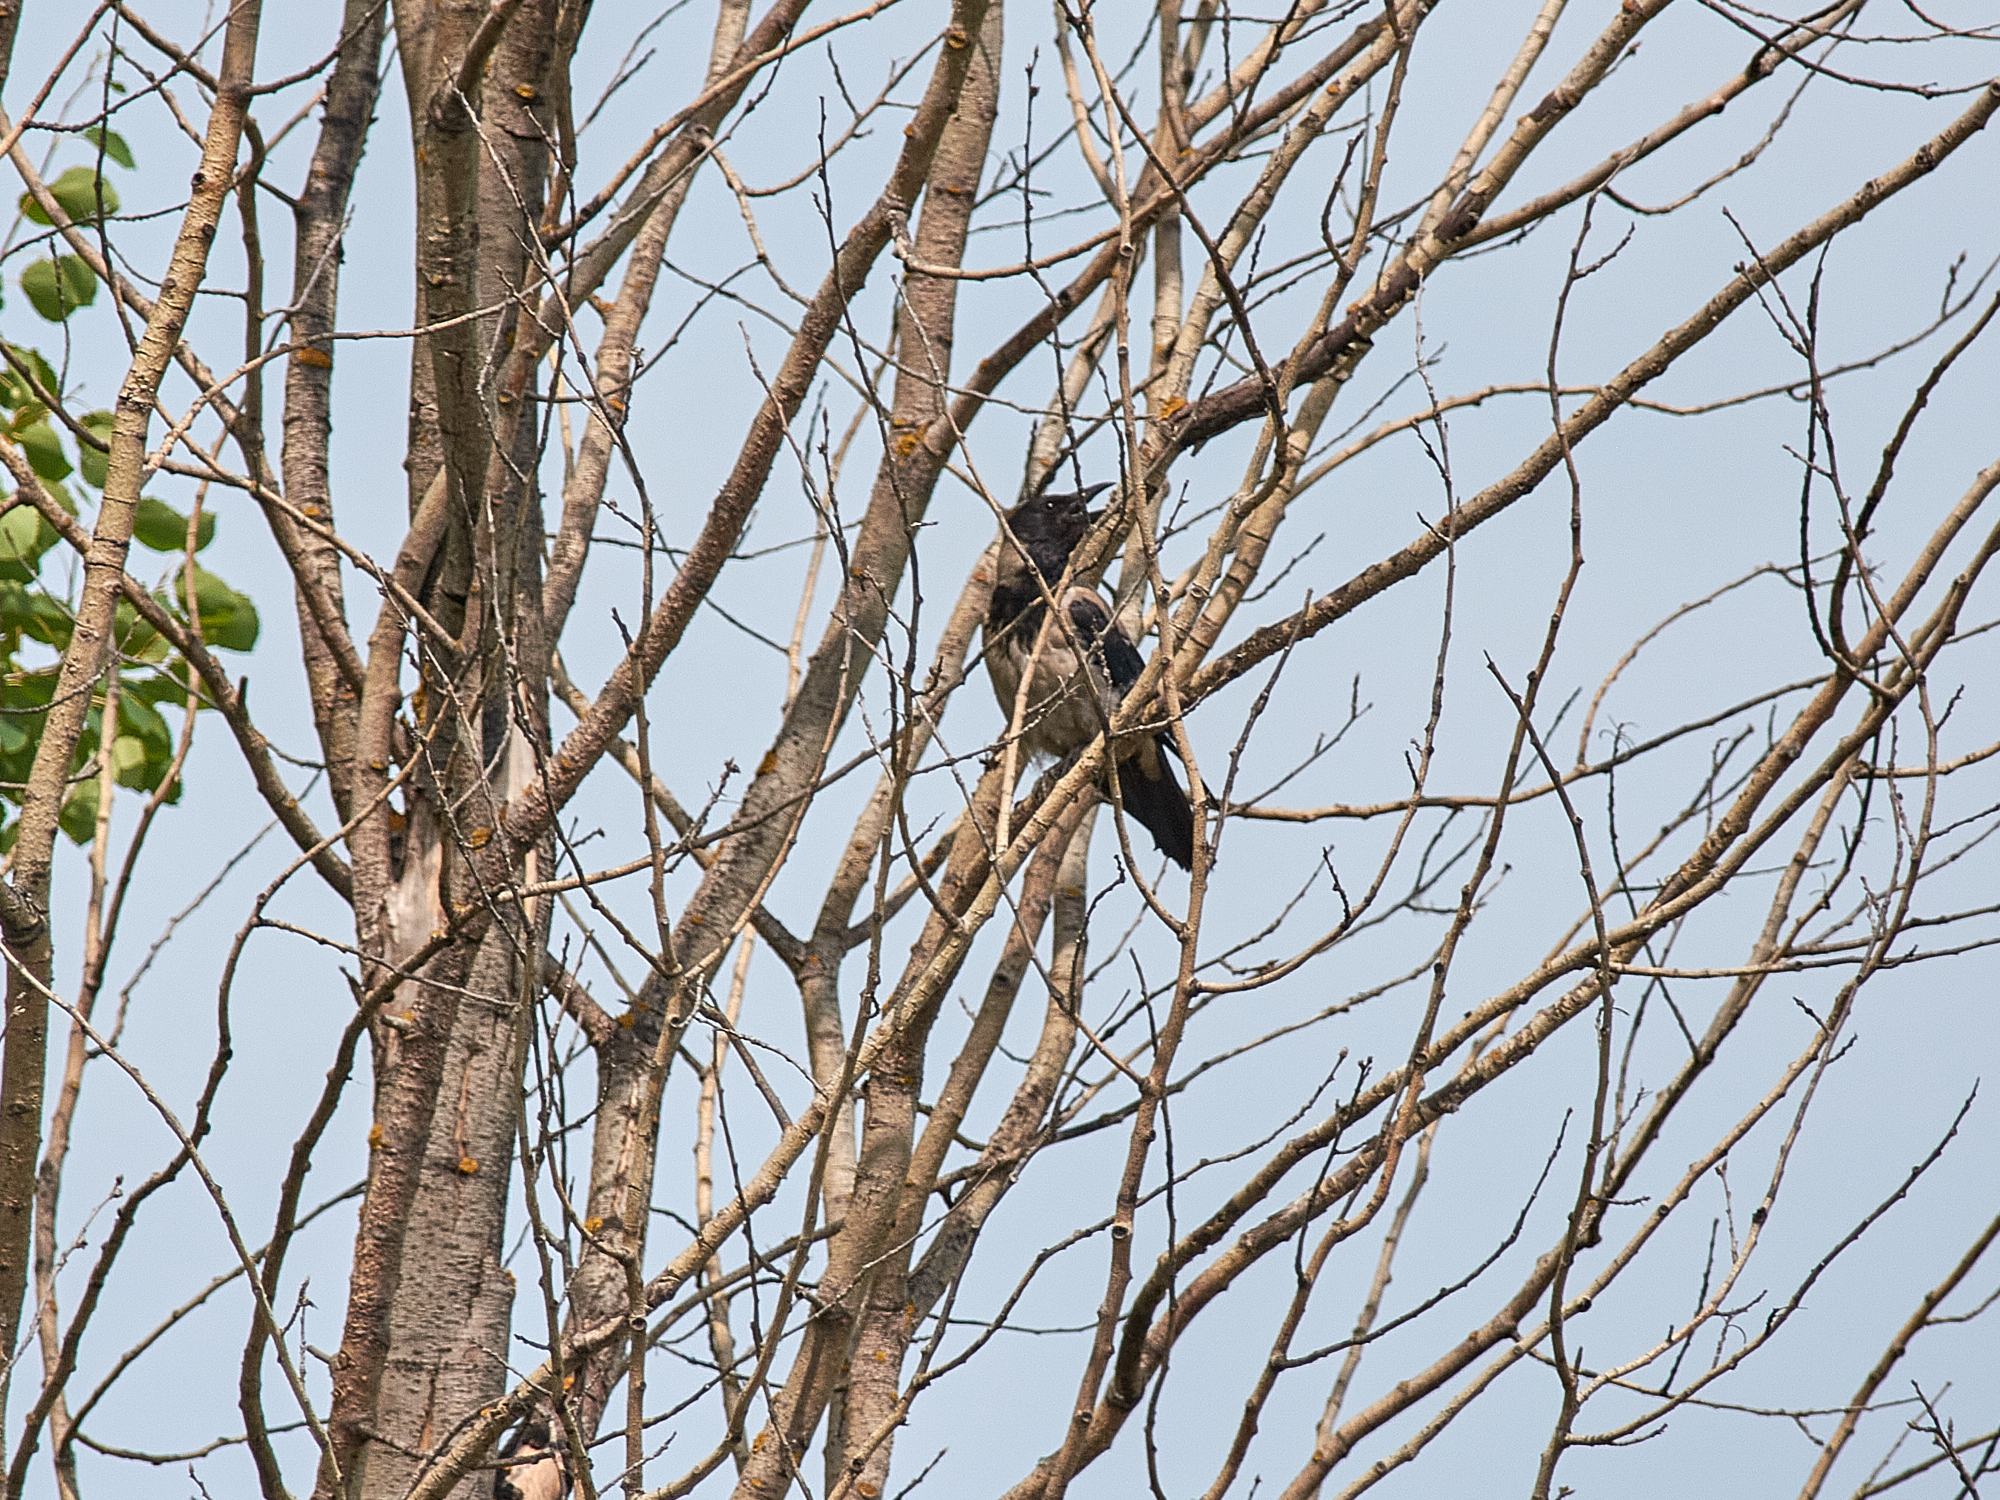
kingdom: Animalia
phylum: Chordata
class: Aves
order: Passeriformes
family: Corvidae
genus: Corvus
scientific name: Corvus cornix
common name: Hooded crow
